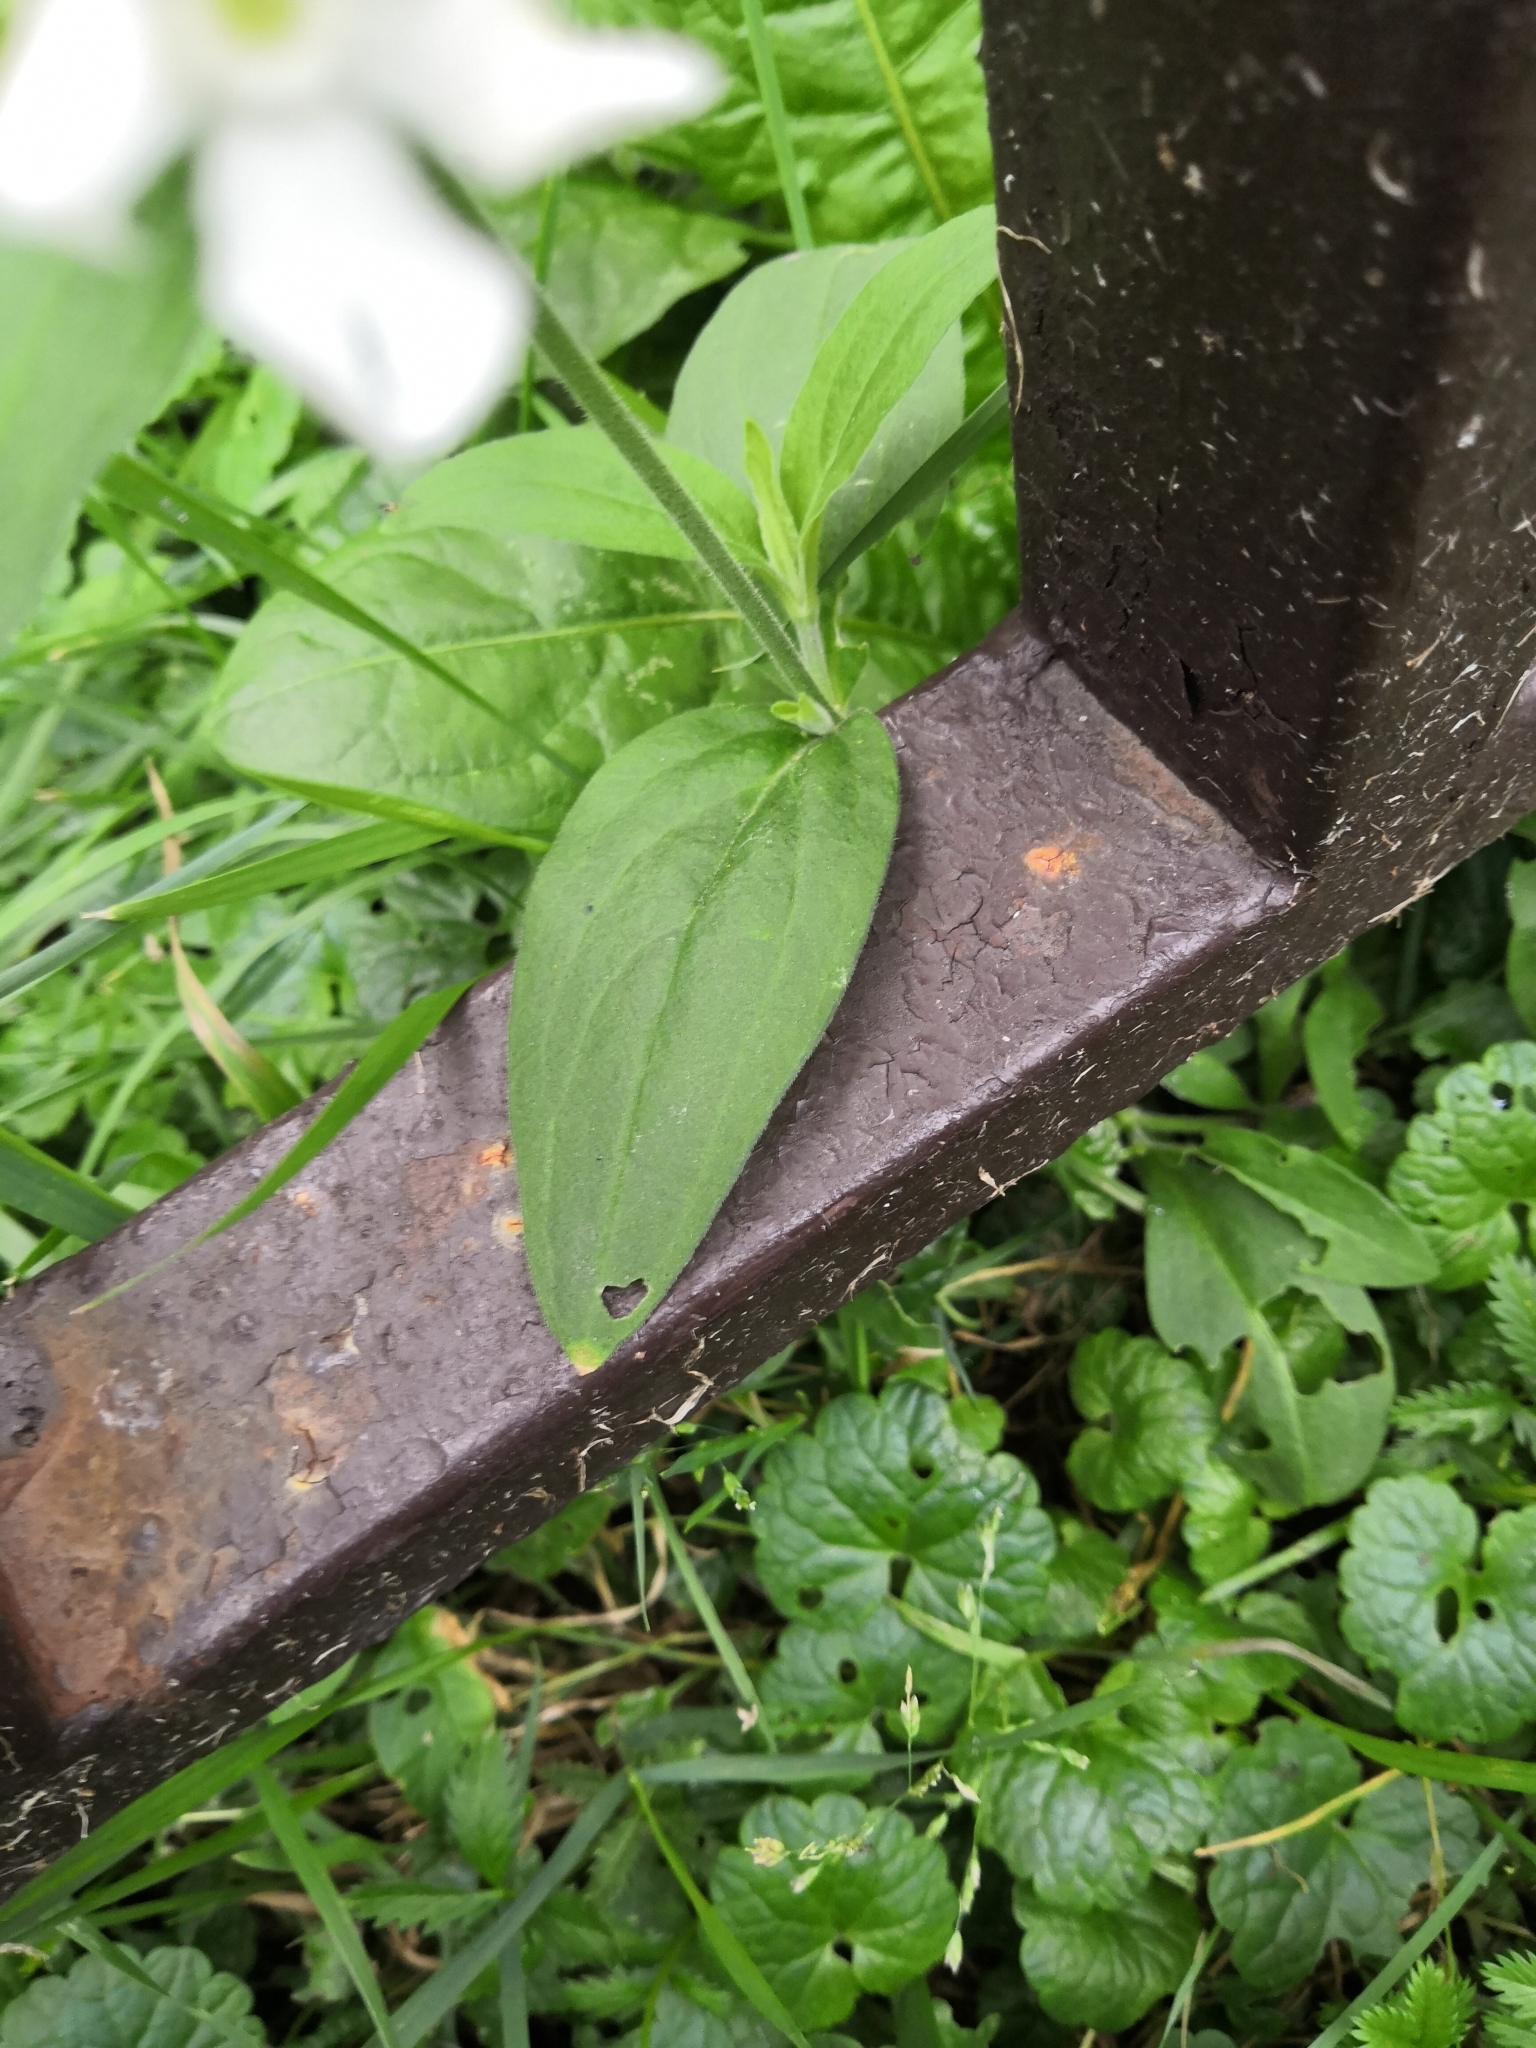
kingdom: Plantae
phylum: Tracheophyta
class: Magnoliopsida
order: Caryophyllales
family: Caryophyllaceae
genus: Silene
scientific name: Silene latifolia
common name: White campion
